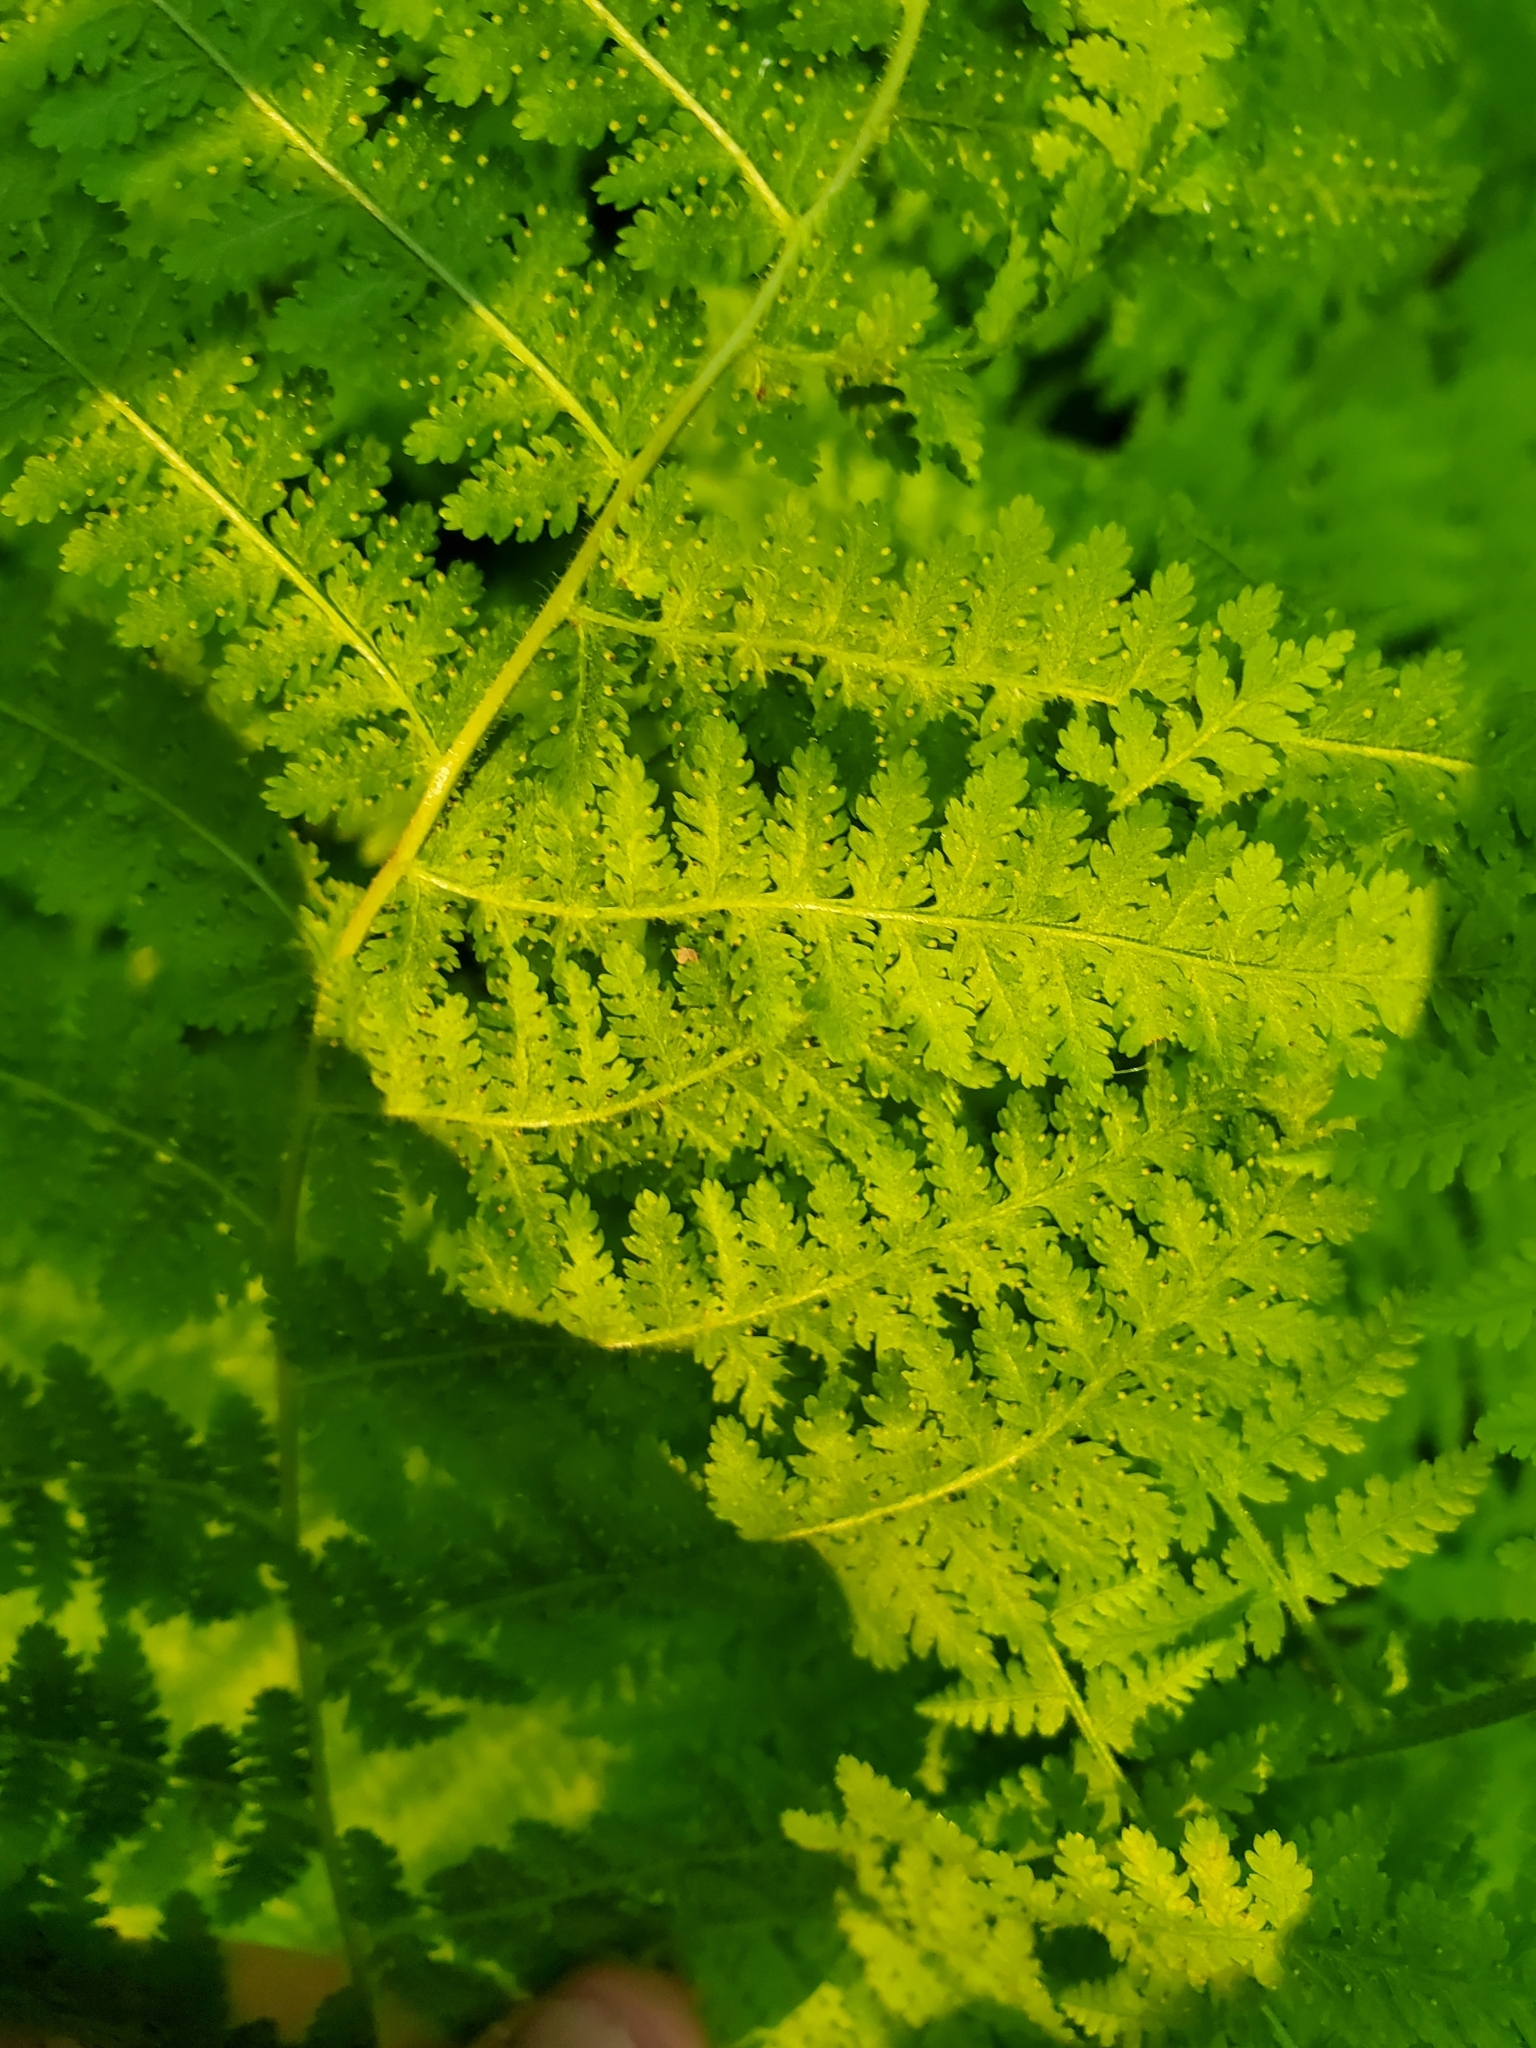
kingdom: Plantae
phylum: Tracheophyta
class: Polypodiopsida
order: Polypodiales
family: Dennstaedtiaceae
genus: Sitobolium
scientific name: Sitobolium punctilobum
